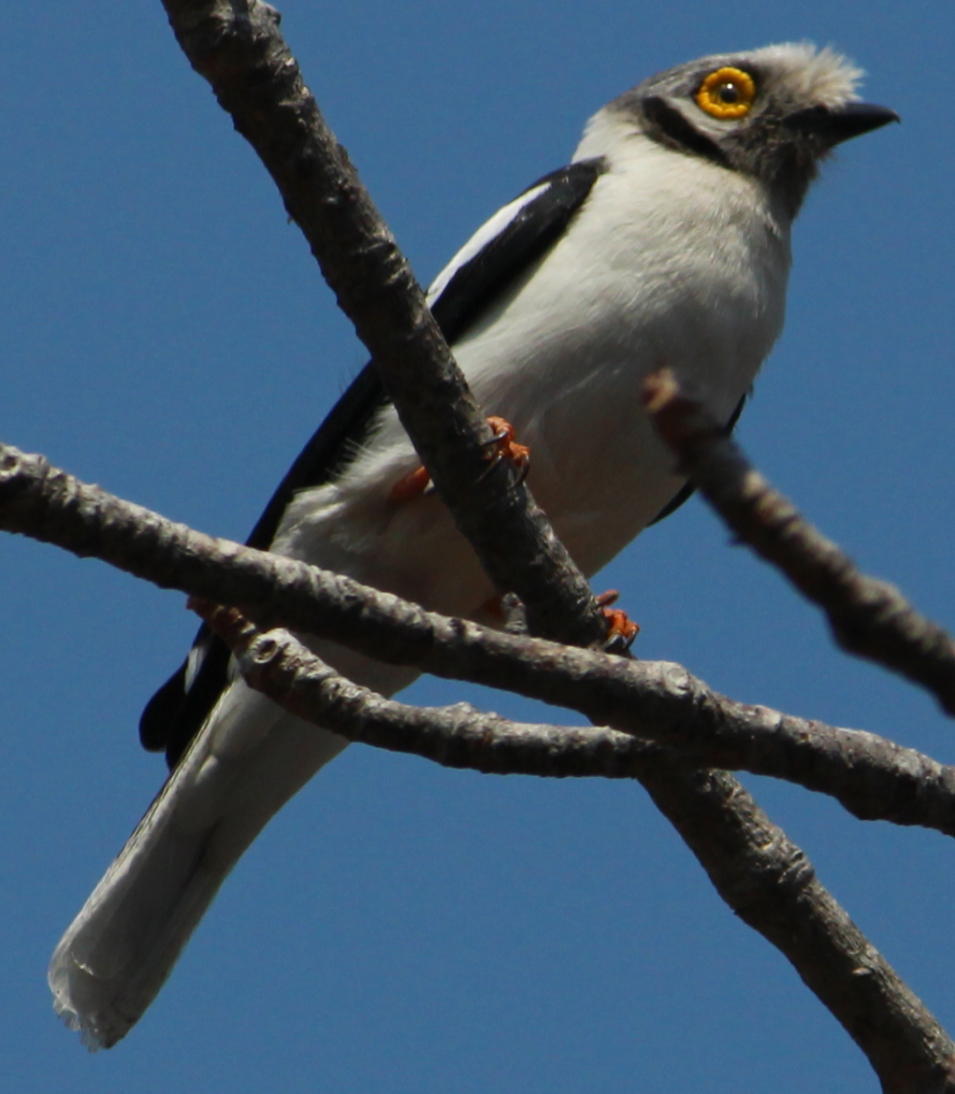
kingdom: Animalia
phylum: Chordata
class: Aves
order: Passeriformes
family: Prionopidae
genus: Prionops
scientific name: Prionops plumatus
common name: White-crested helmetshrike
